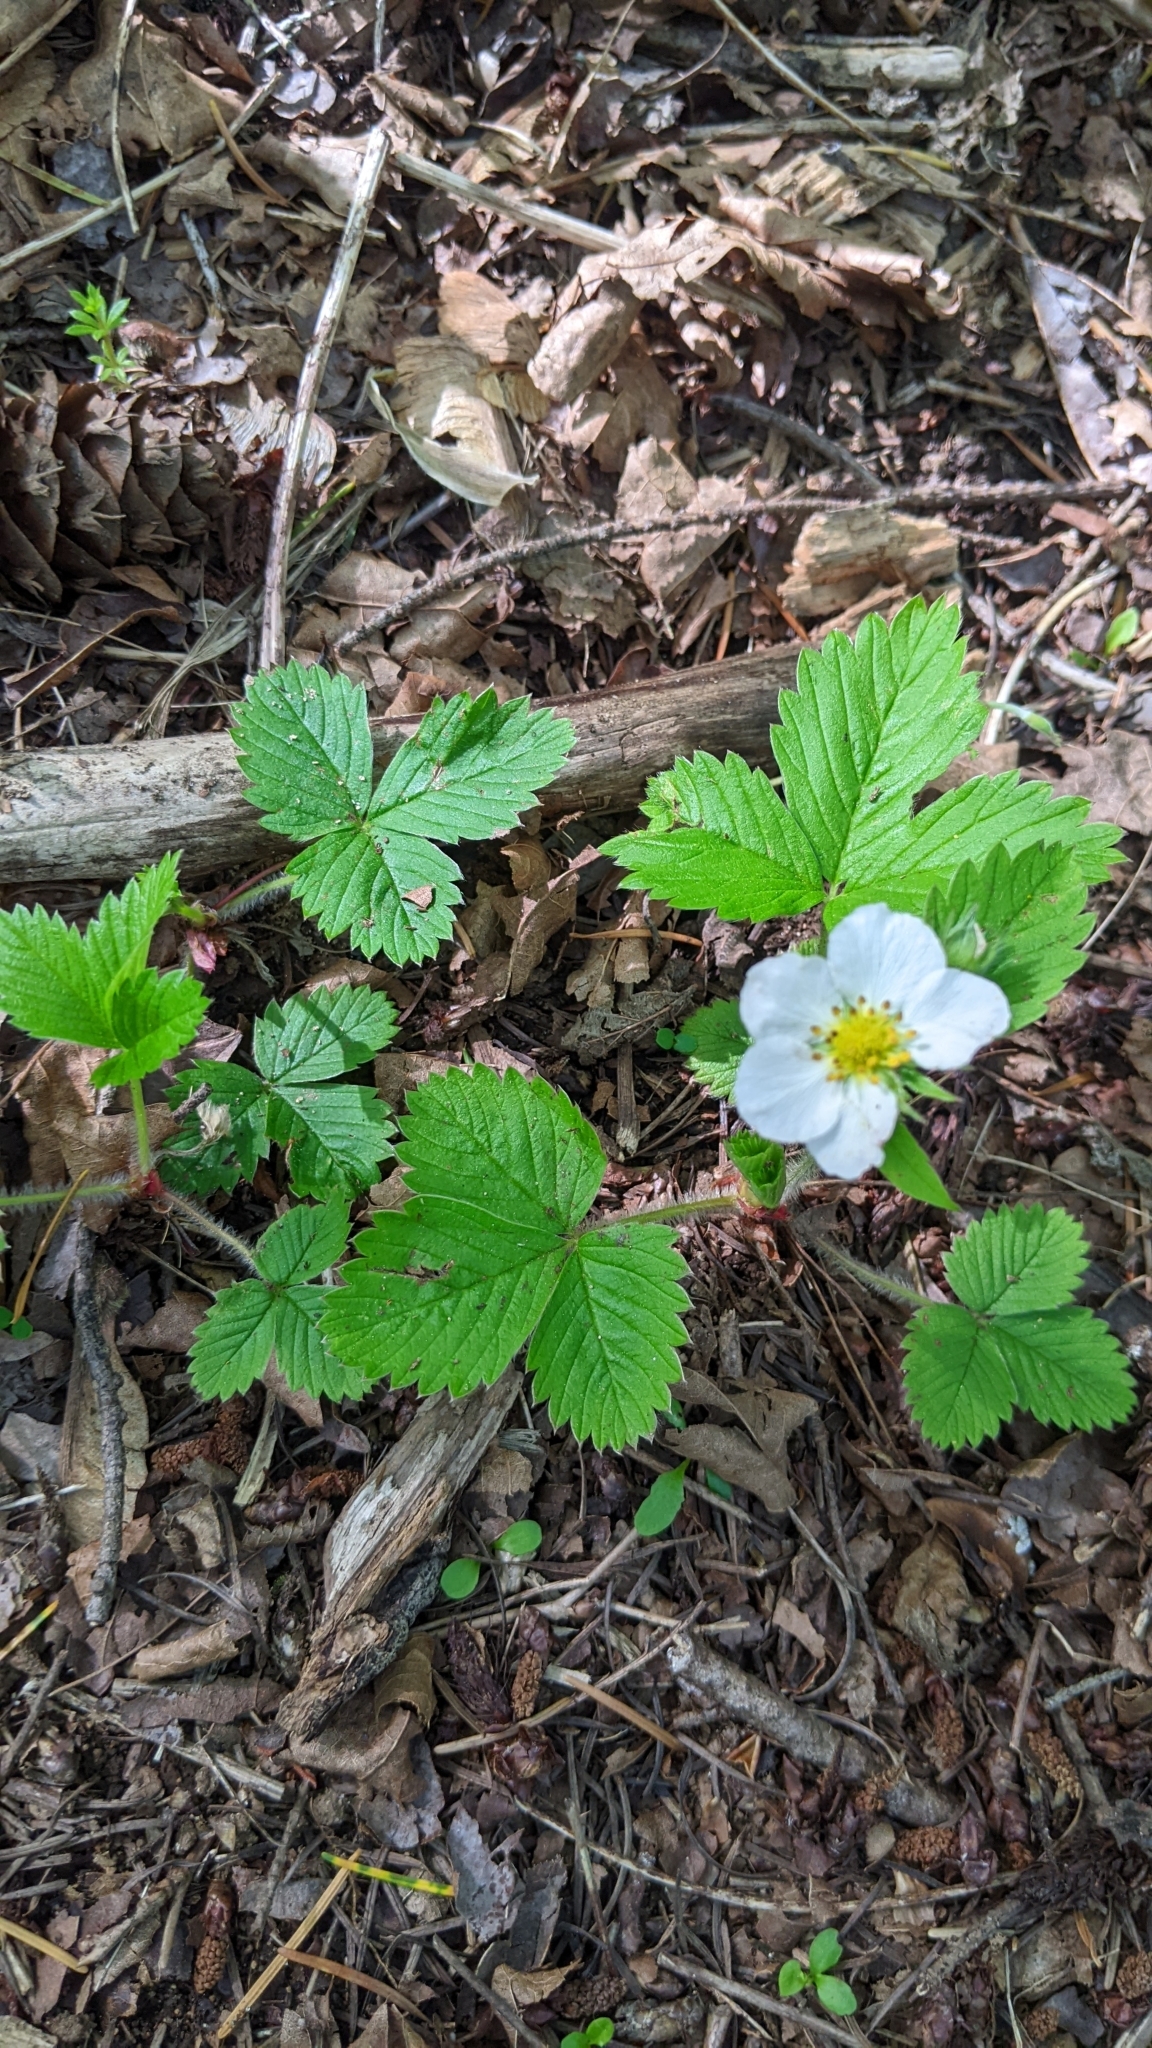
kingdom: Plantae
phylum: Tracheophyta
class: Magnoliopsida
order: Rosales
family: Rosaceae
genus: Fragaria
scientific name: Fragaria vesca
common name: Wild strawberry
